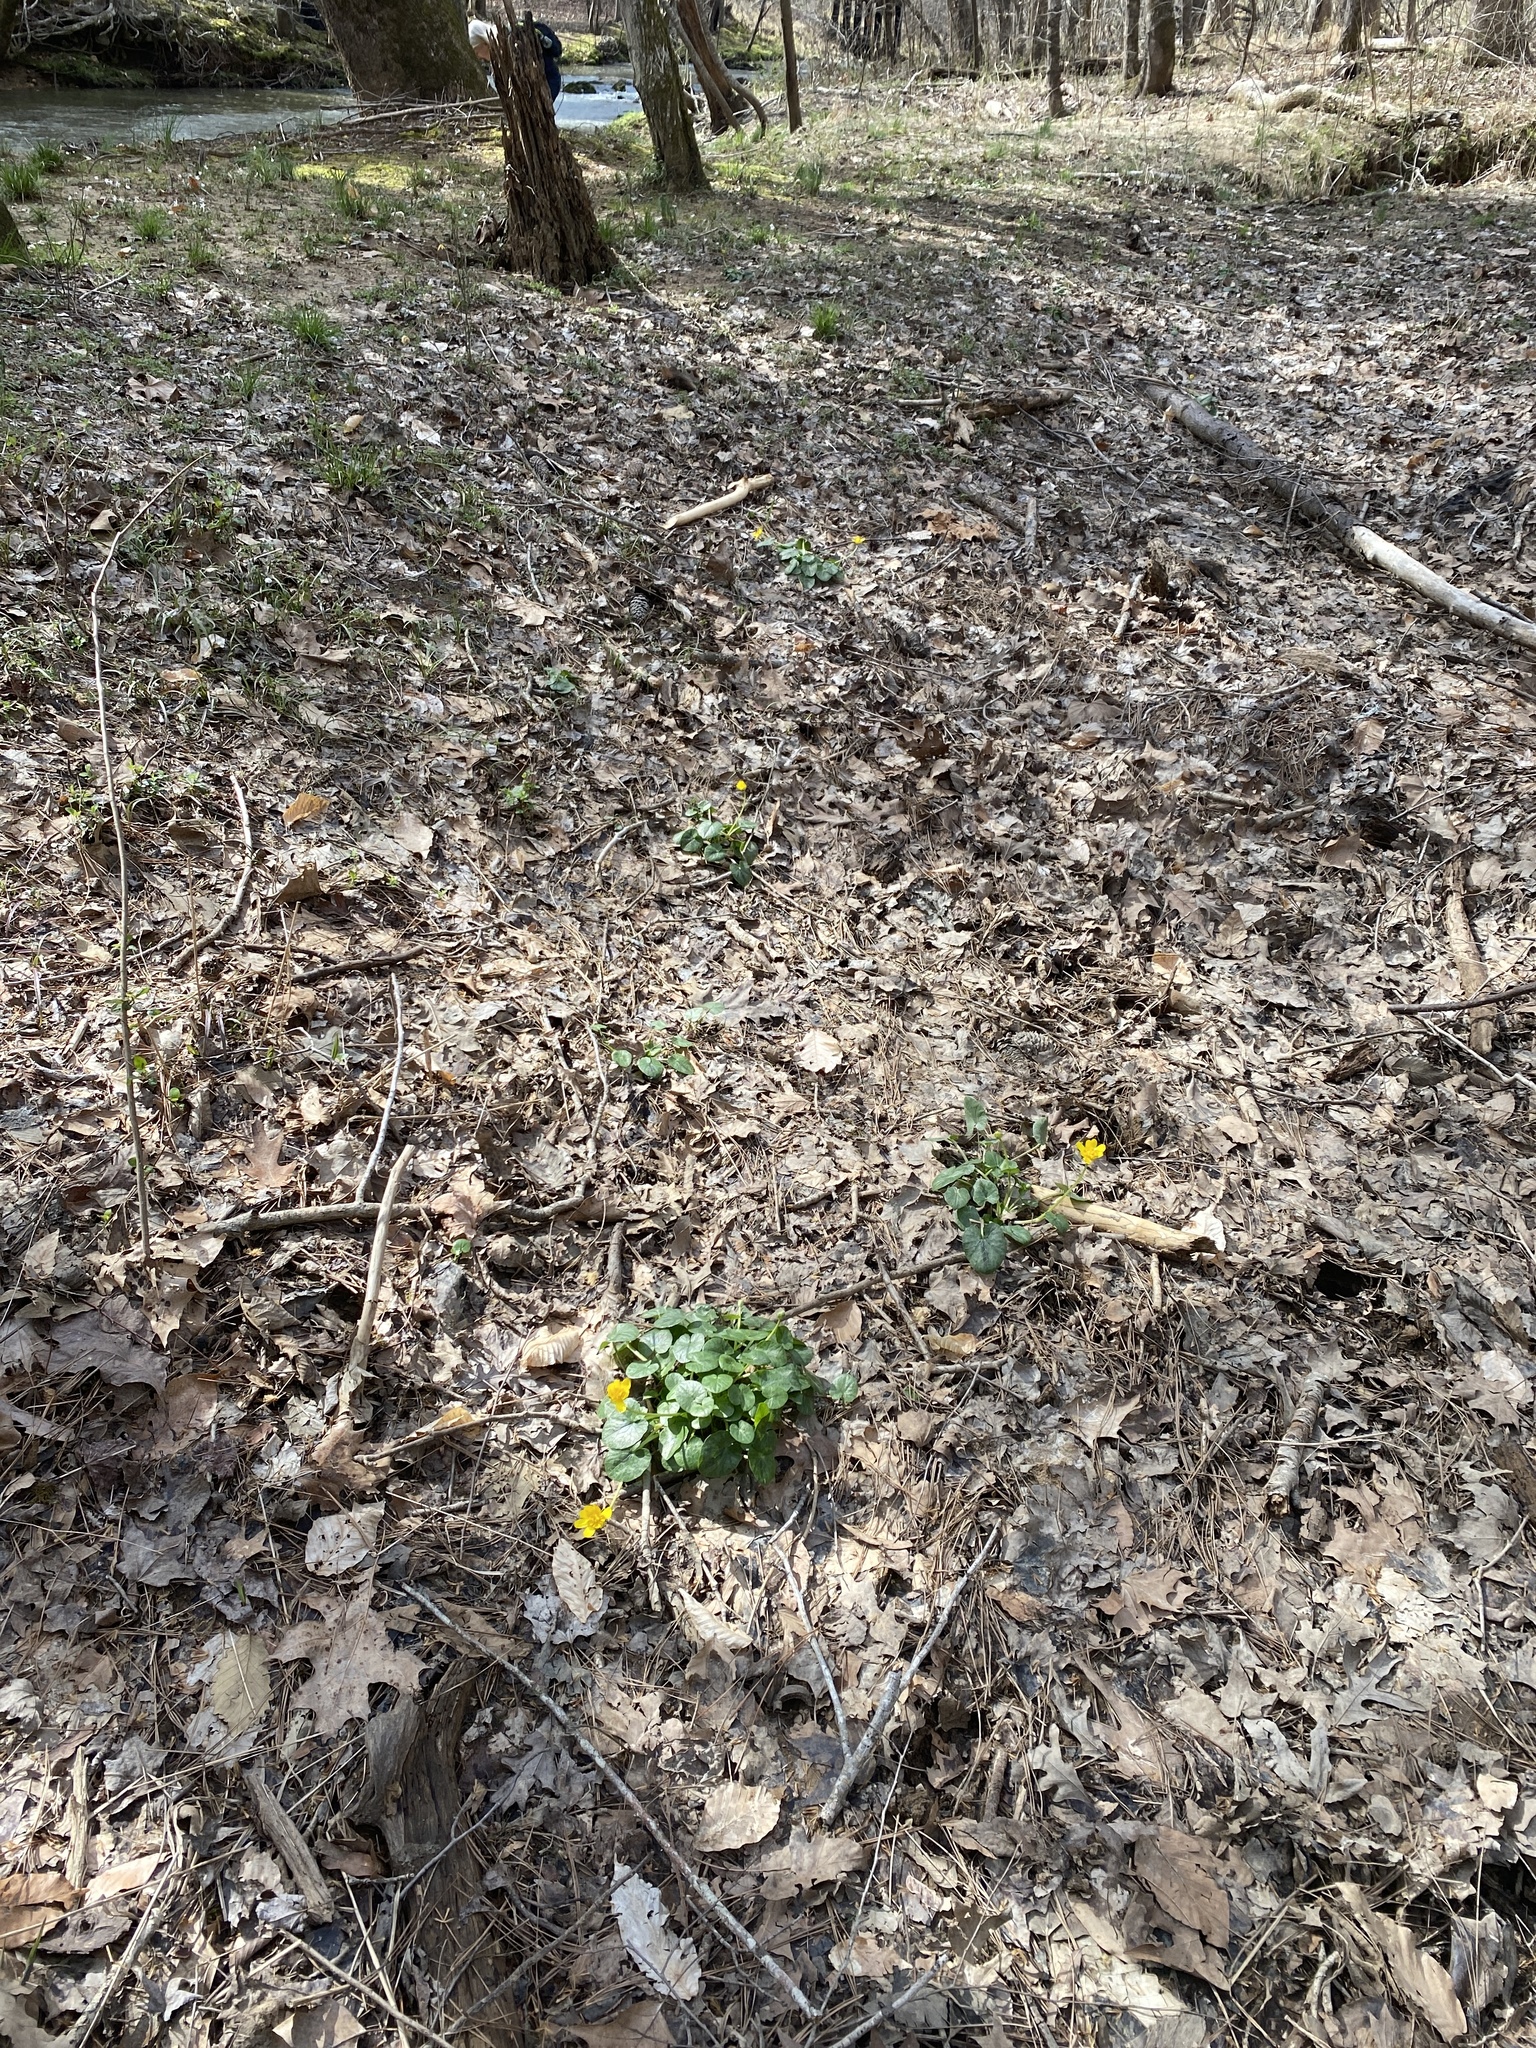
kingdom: Plantae
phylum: Tracheophyta
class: Magnoliopsida
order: Ranunculales
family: Ranunculaceae
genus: Ficaria
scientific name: Ficaria verna
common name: Lesser celandine
